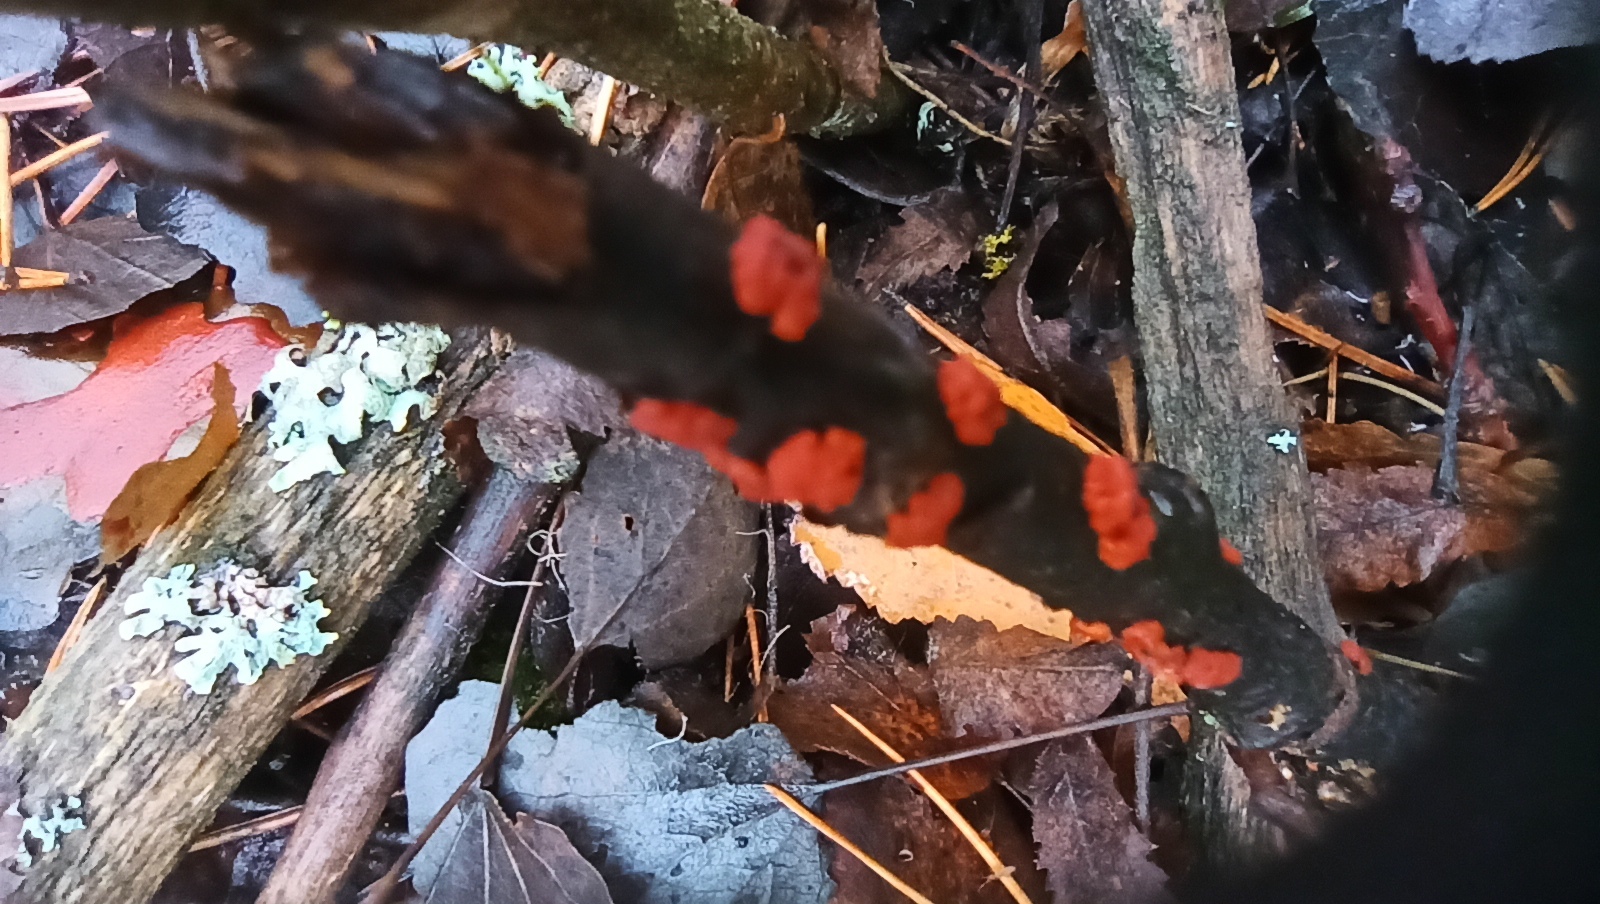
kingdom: Fungi
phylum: Basidiomycota
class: Agaricomycetes
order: Russulales
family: Peniophoraceae
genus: Peniophora
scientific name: Peniophora rufa
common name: Red tree brain fungus
